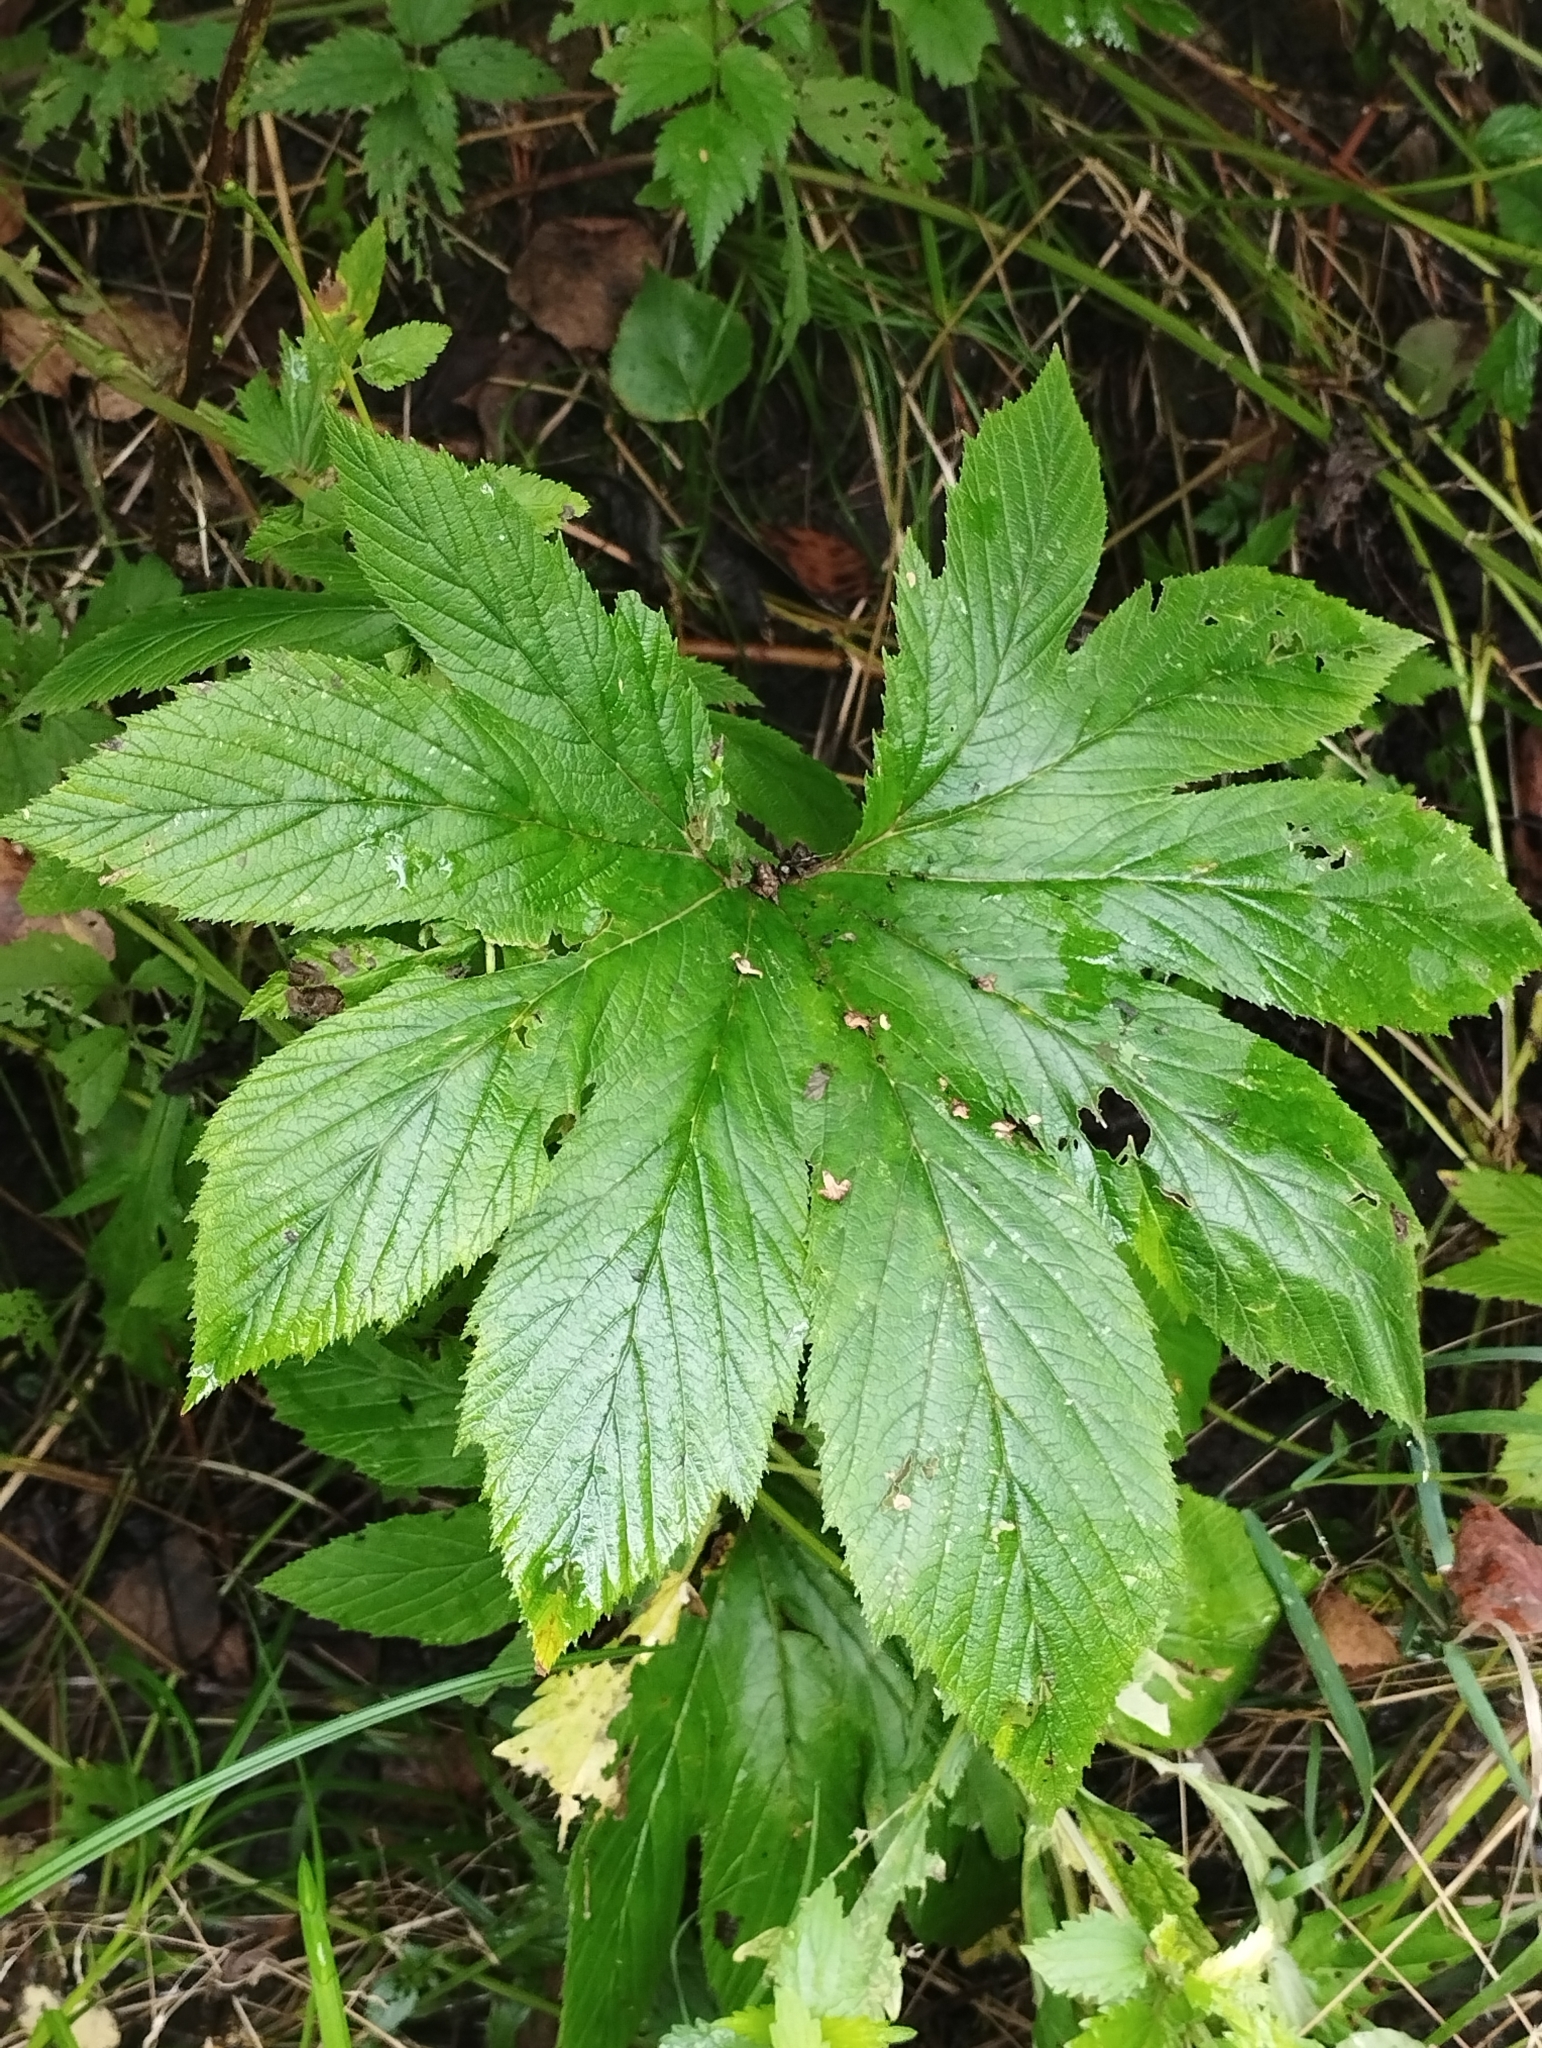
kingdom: Plantae
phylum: Tracheophyta
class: Magnoliopsida
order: Rosales
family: Rosaceae
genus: Filipendula
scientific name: Filipendula digitata
